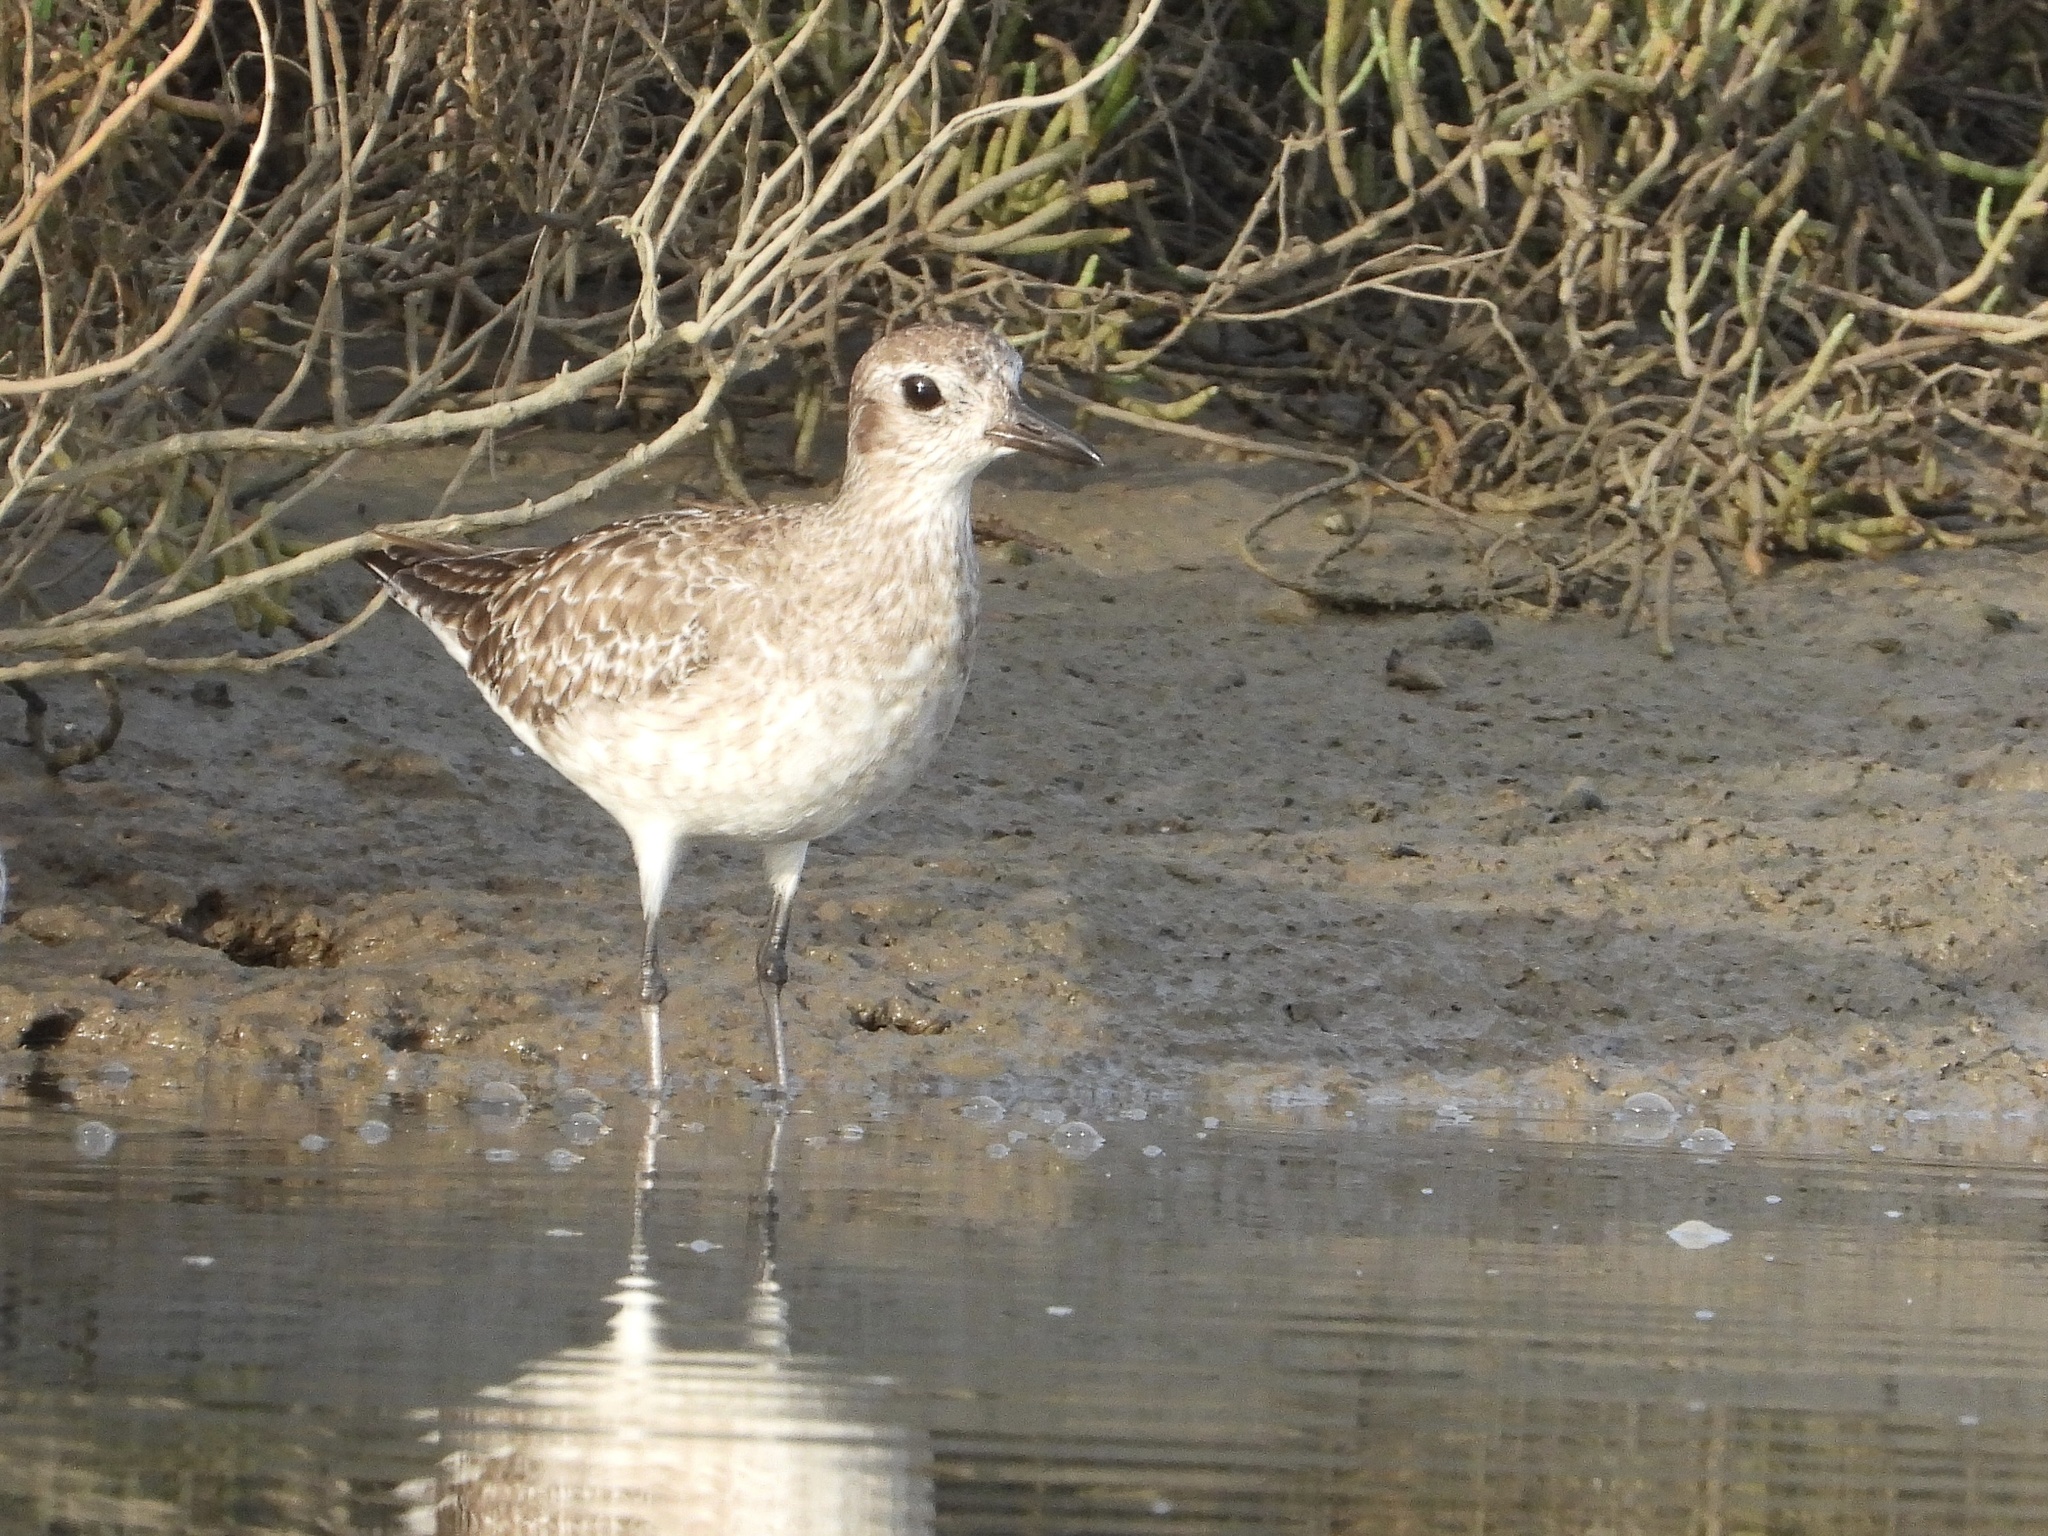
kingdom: Animalia
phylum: Chordata
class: Aves
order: Charadriiformes
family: Charadriidae
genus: Pluvialis
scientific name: Pluvialis squatarola
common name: Grey plover
